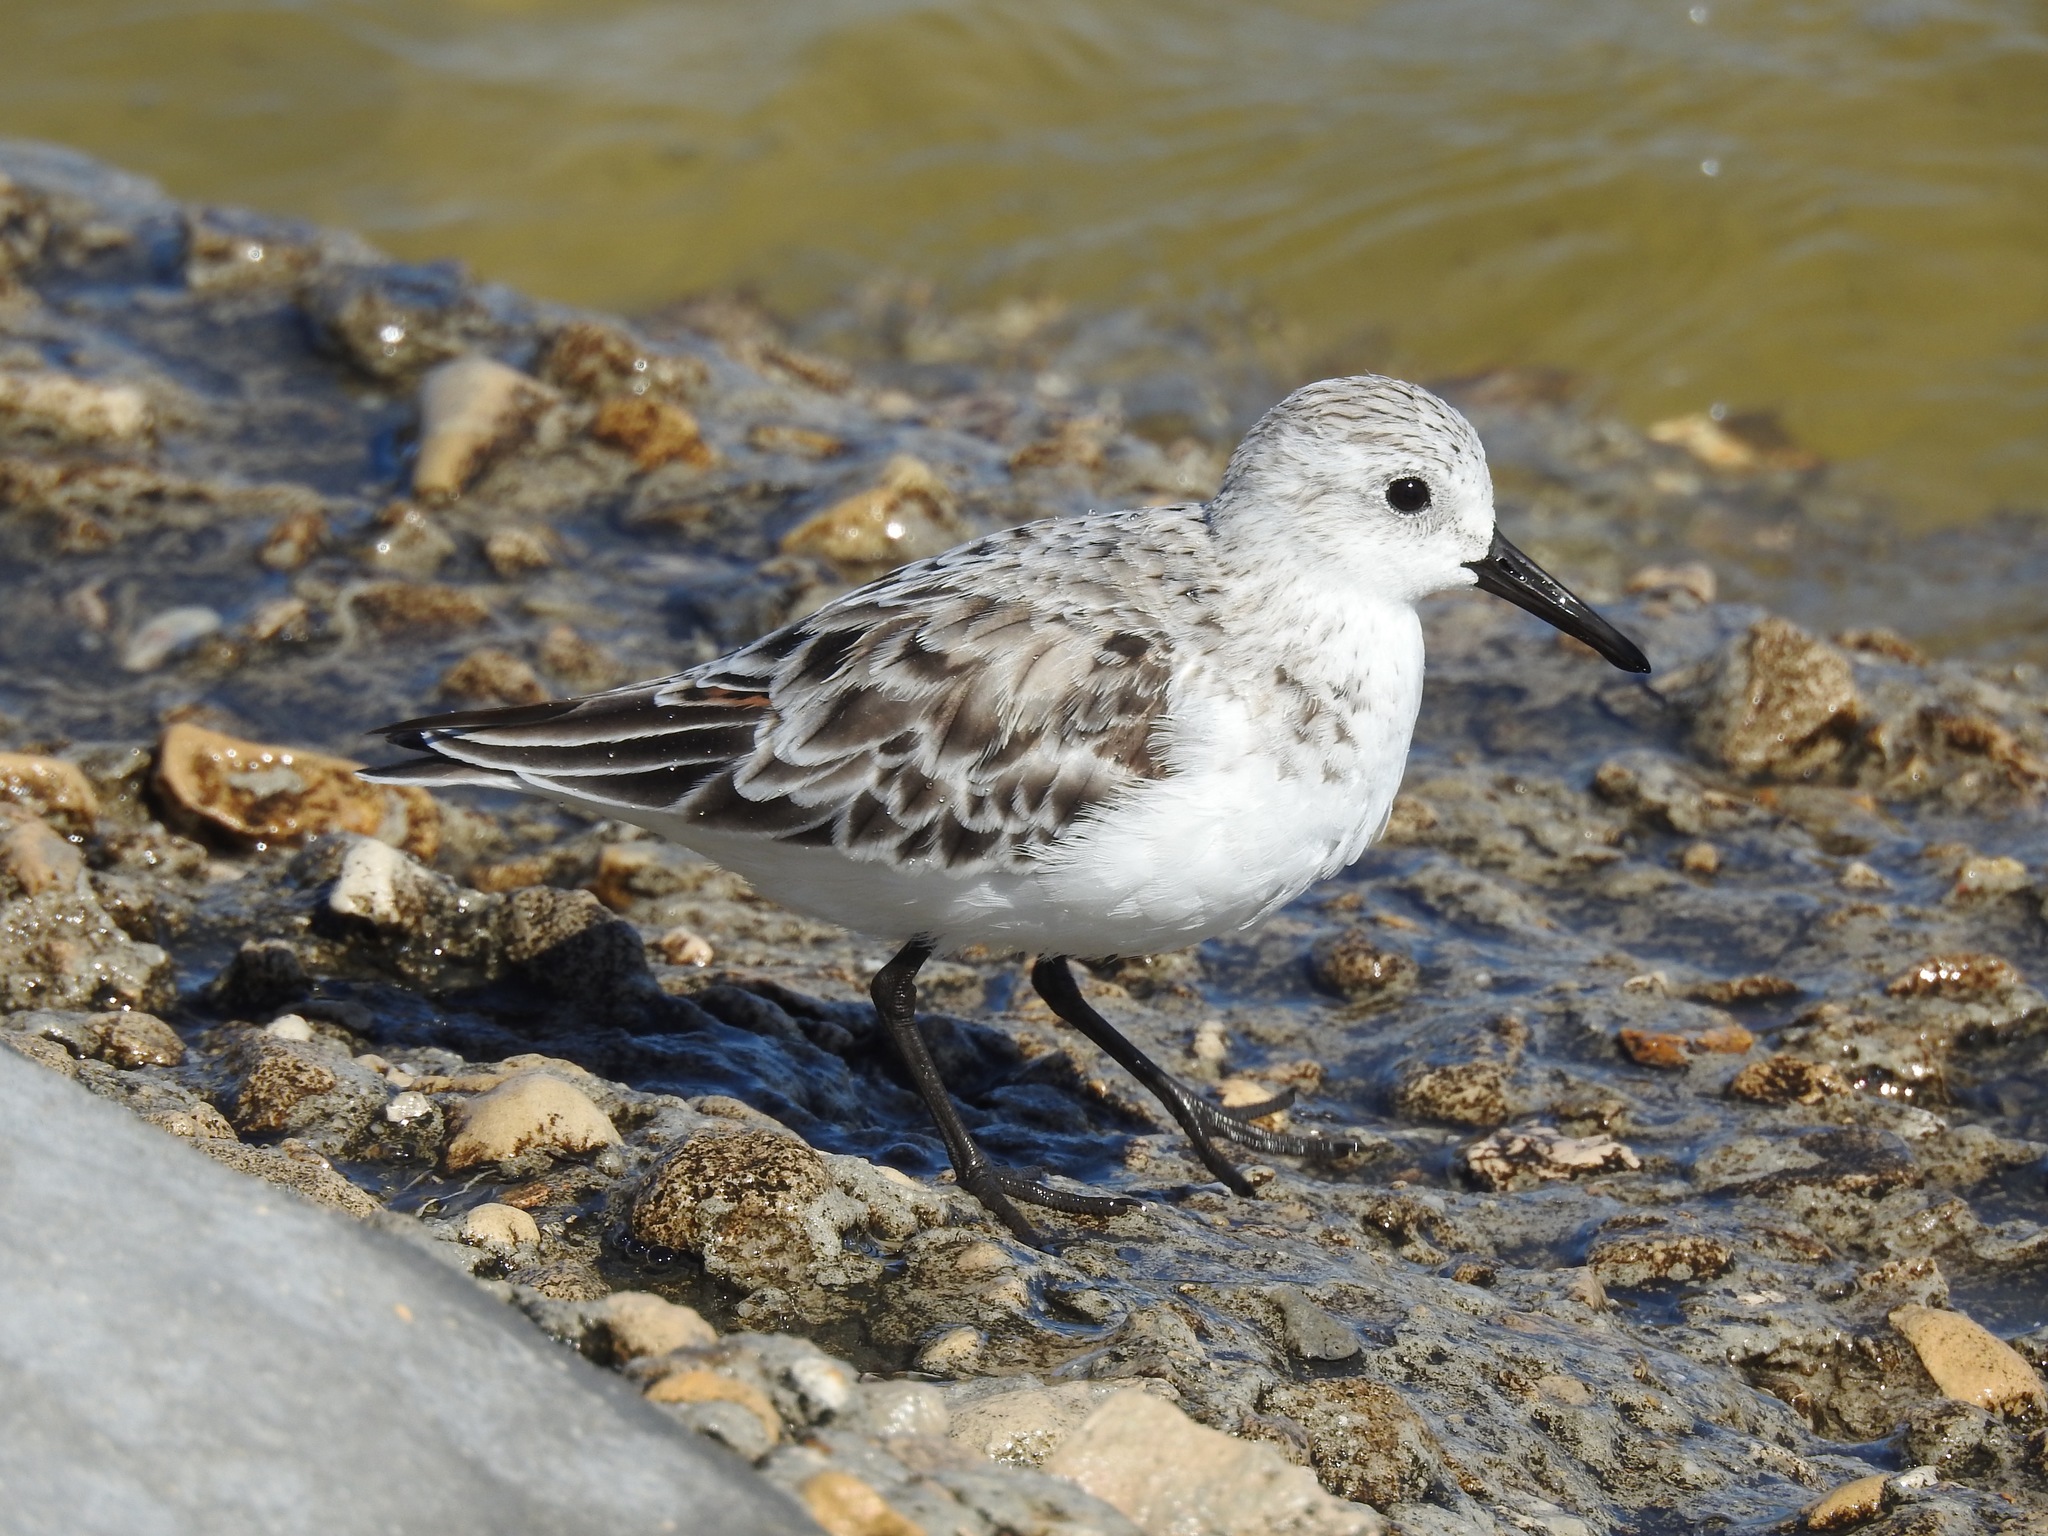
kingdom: Animalia
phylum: Chordata
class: Aves
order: Charadriiformes
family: Scolopacidae
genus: Calidris
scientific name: Calidris alba
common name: Sanderling
